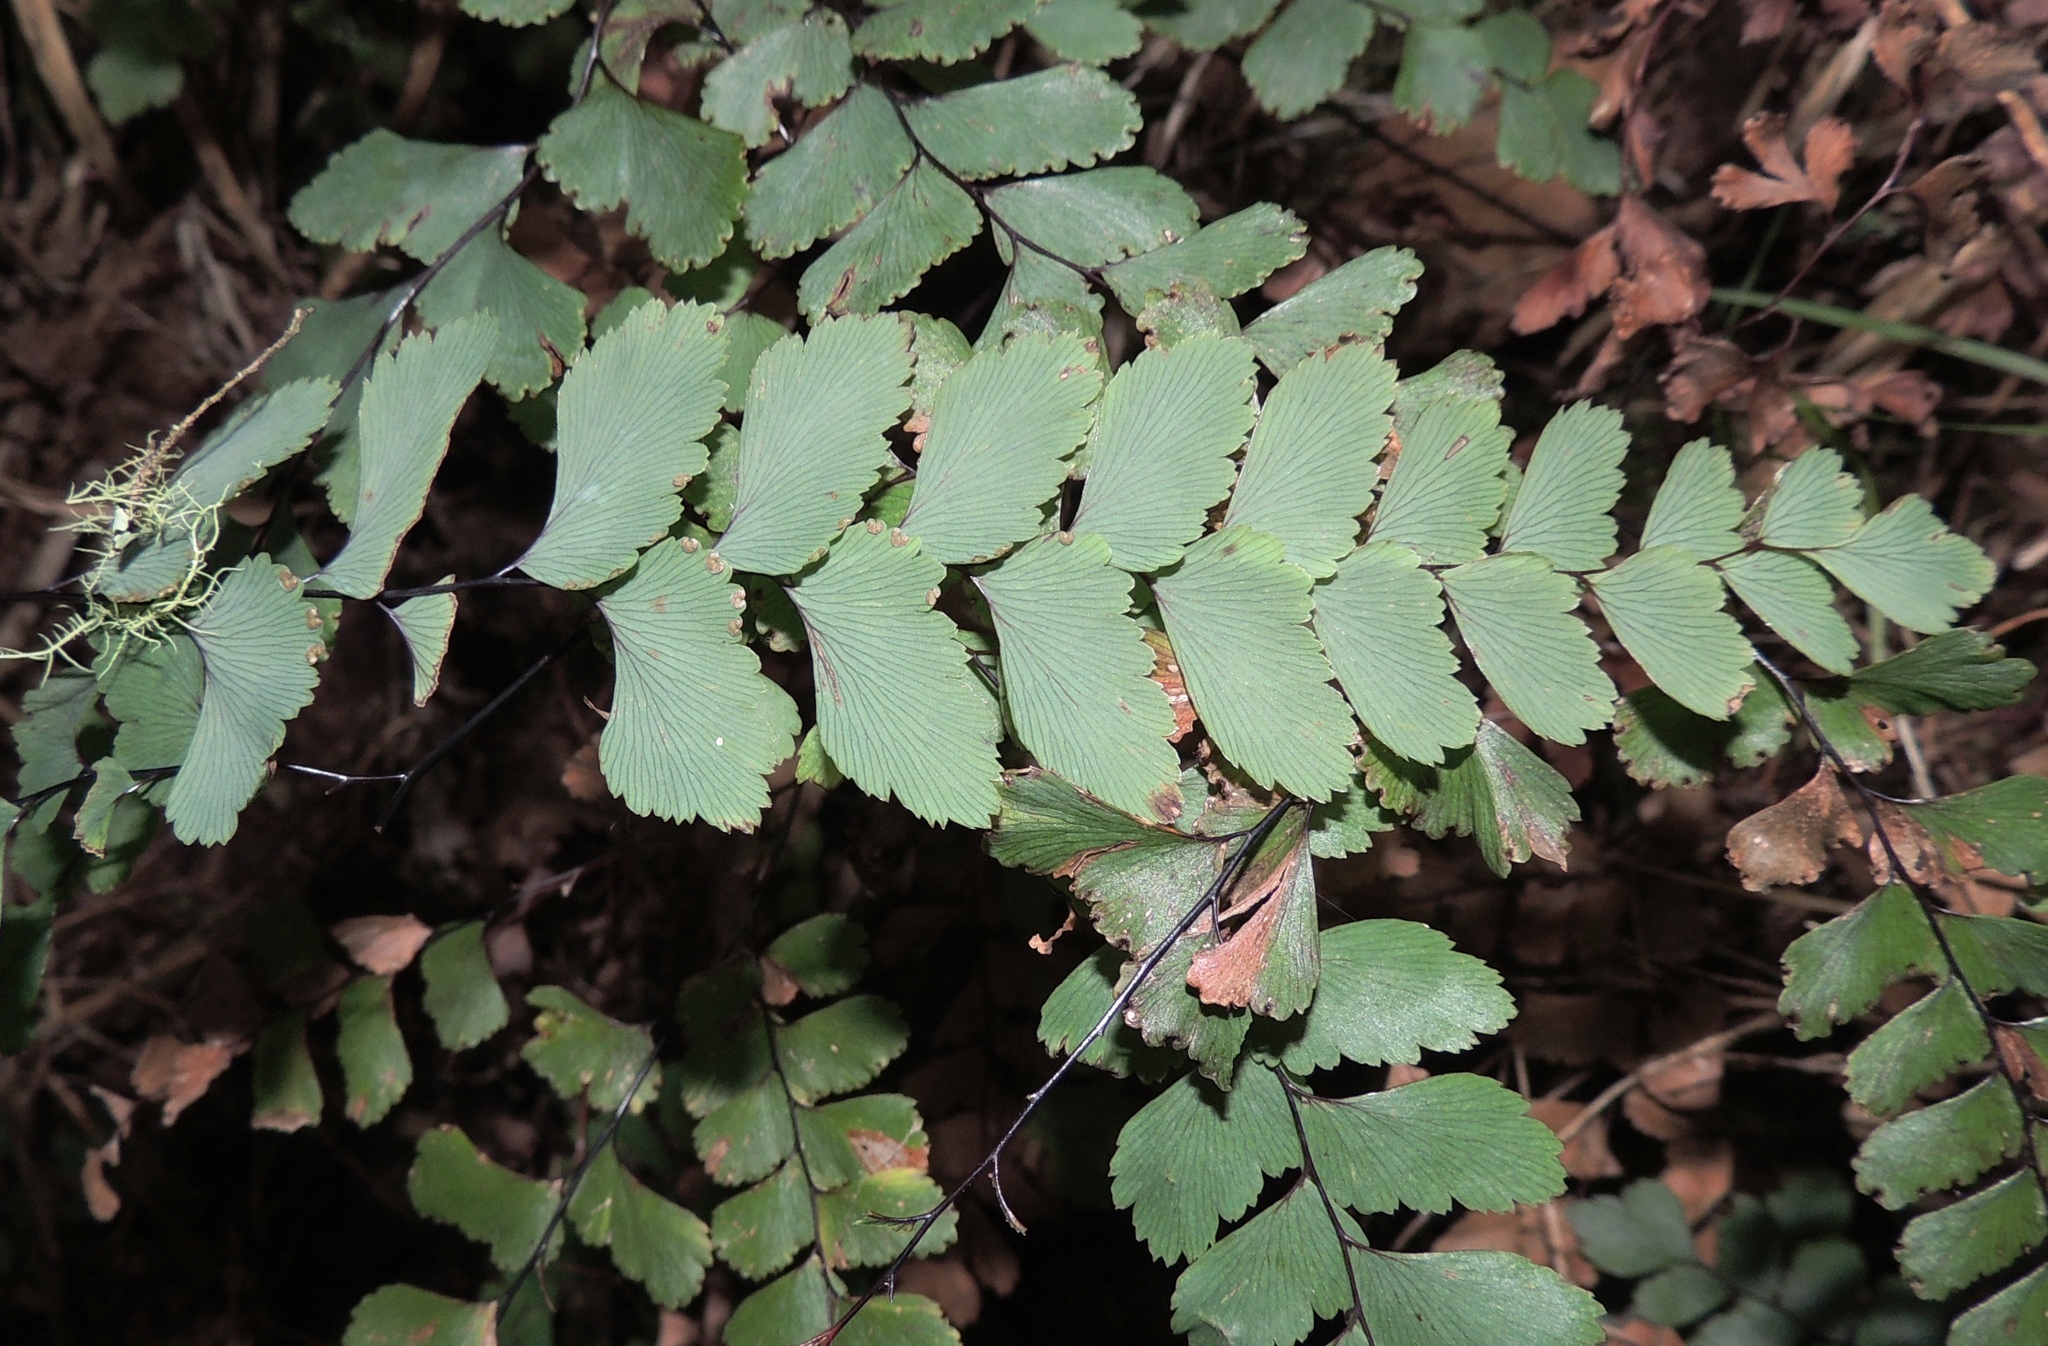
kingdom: Plantae
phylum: Tracheophyta
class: Polypodiopsida
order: Polypodiales
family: Pteridaceae
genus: Adiantum
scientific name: Adiantum cunninghamii
